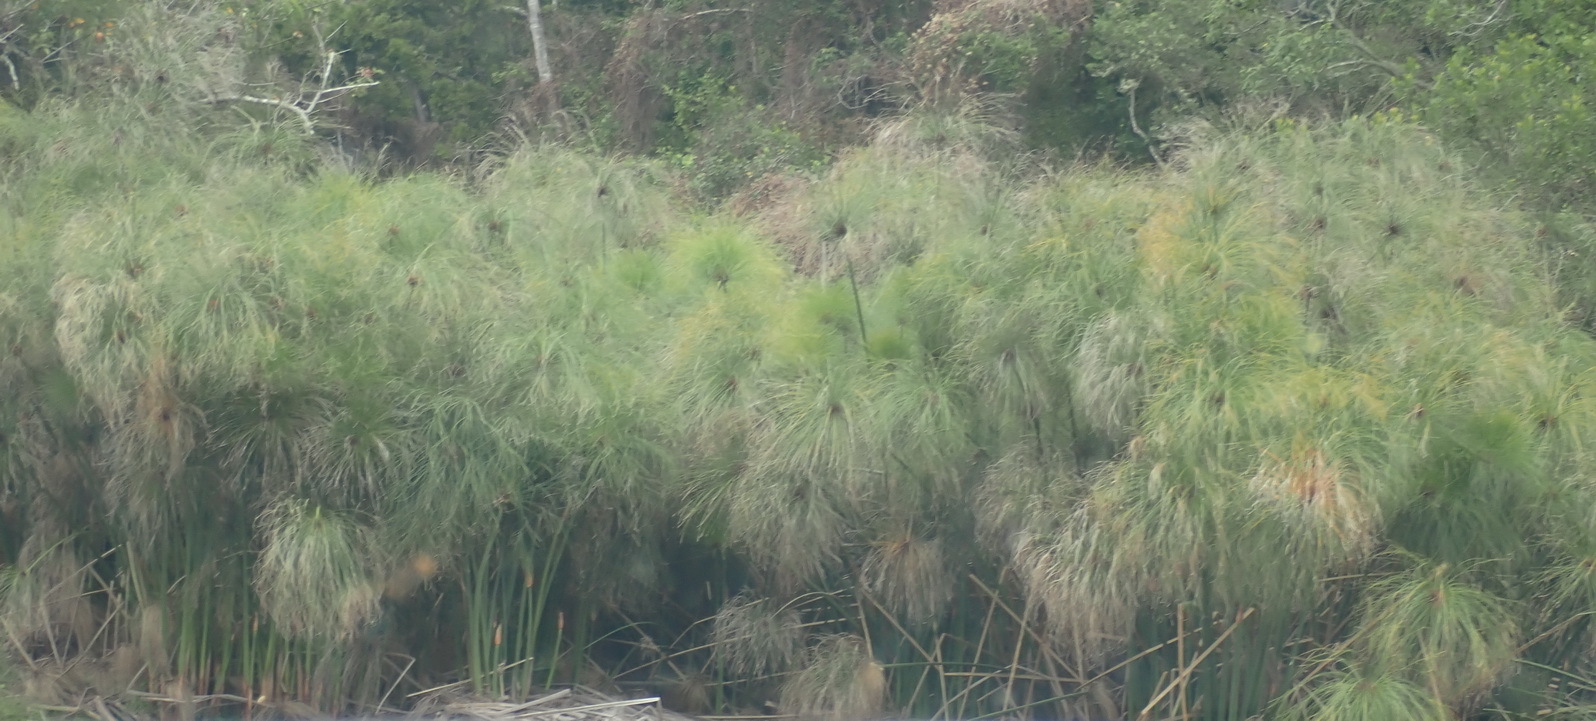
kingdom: Plantae
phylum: Tracheophyta
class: Liliopsida
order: Poales
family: Cyperaceae
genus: Cyperus
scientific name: Cyperus papyrus
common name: Papyrus
